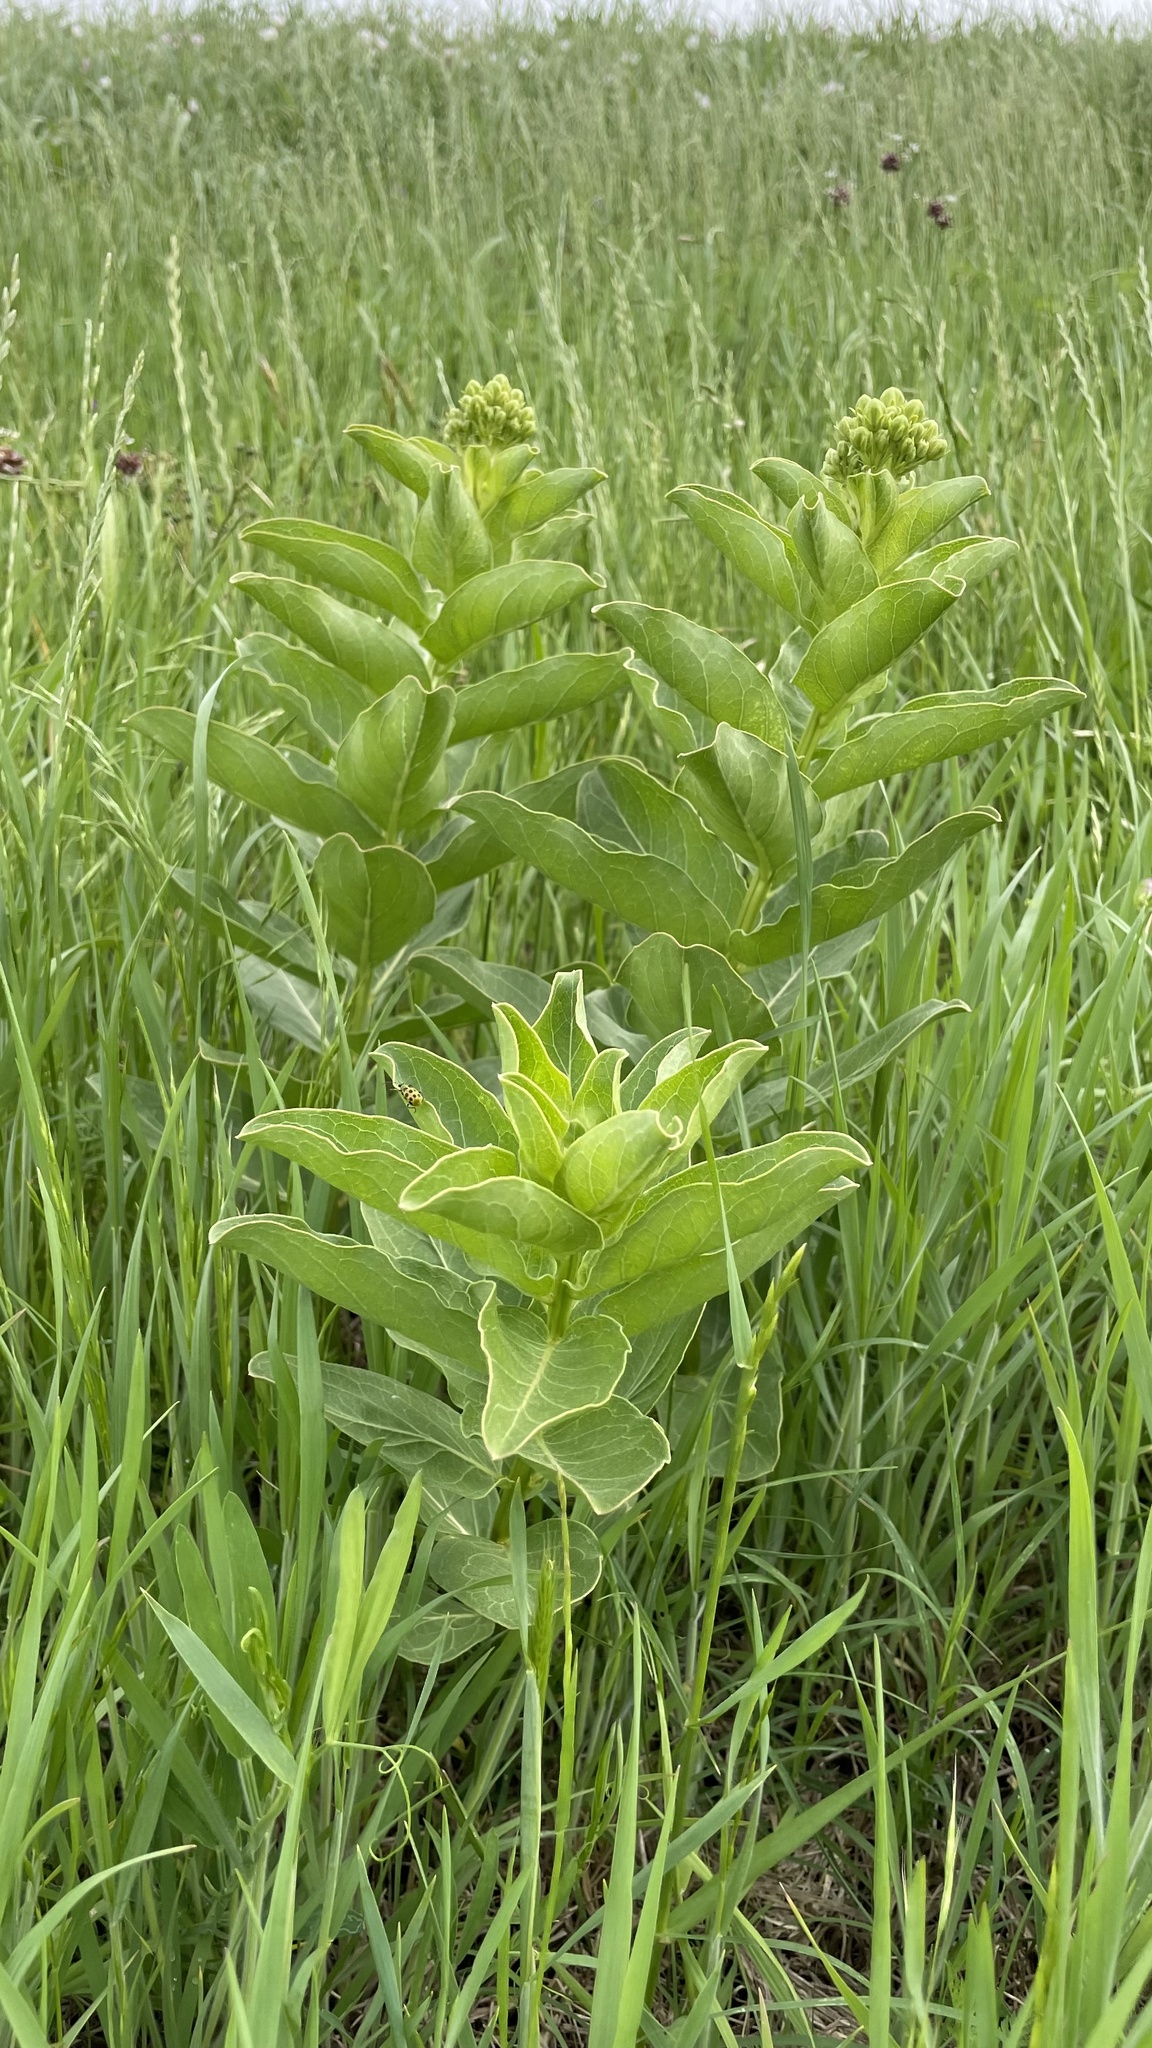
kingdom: Plantae
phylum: Tracheophyta
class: Magnoliopsida
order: Gentianales
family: Apocynaceae
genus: Asclepias
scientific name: Asclepias viridis
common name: Antelope-horns
